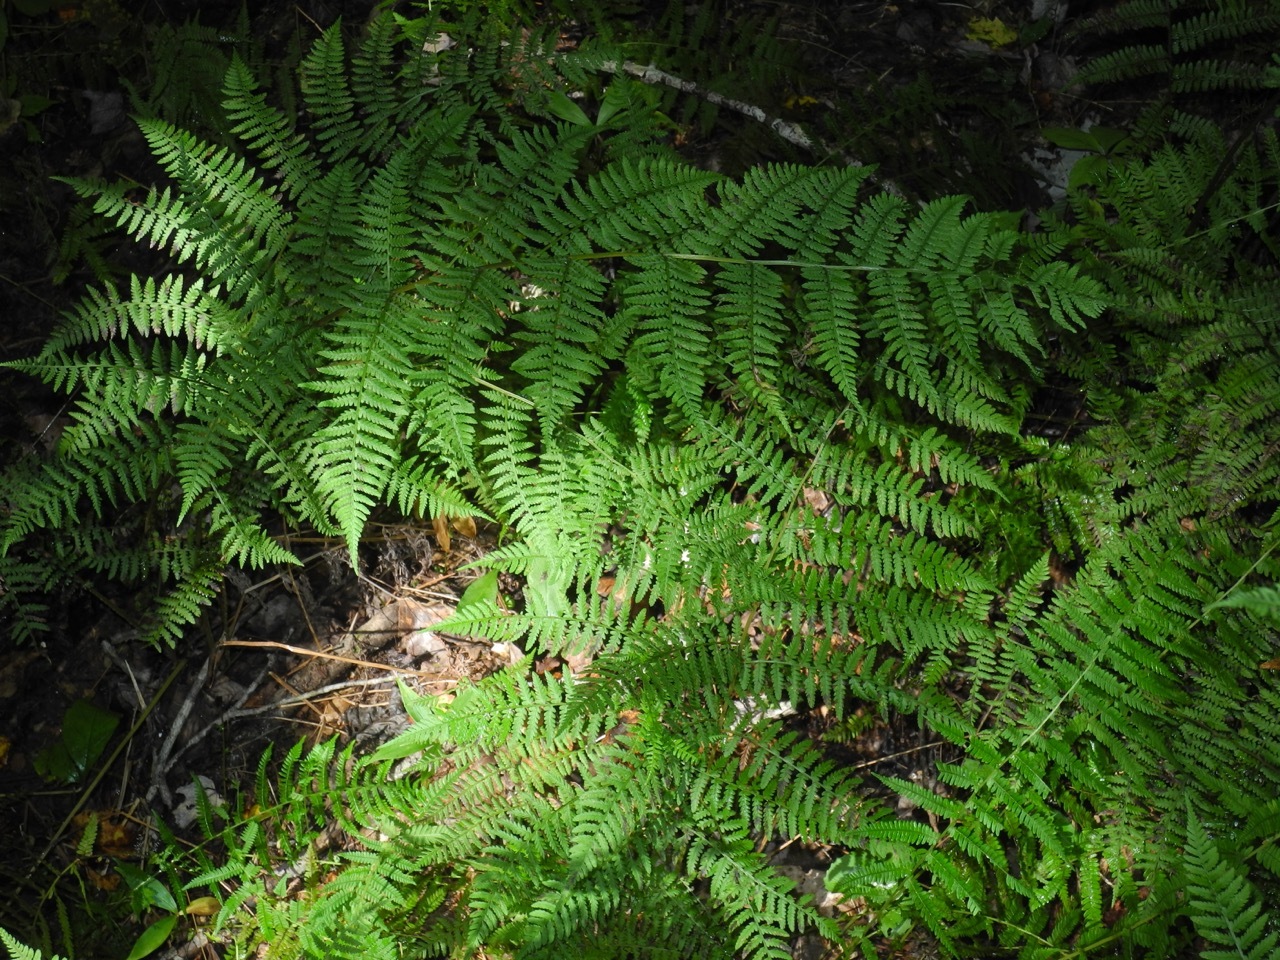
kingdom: Plantae
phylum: Tracheophyta
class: Polypodiopsida
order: Polypodiales
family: Athyriaceae
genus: Athyrium
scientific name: Athyrium asplenioides
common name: Southern lady fern
